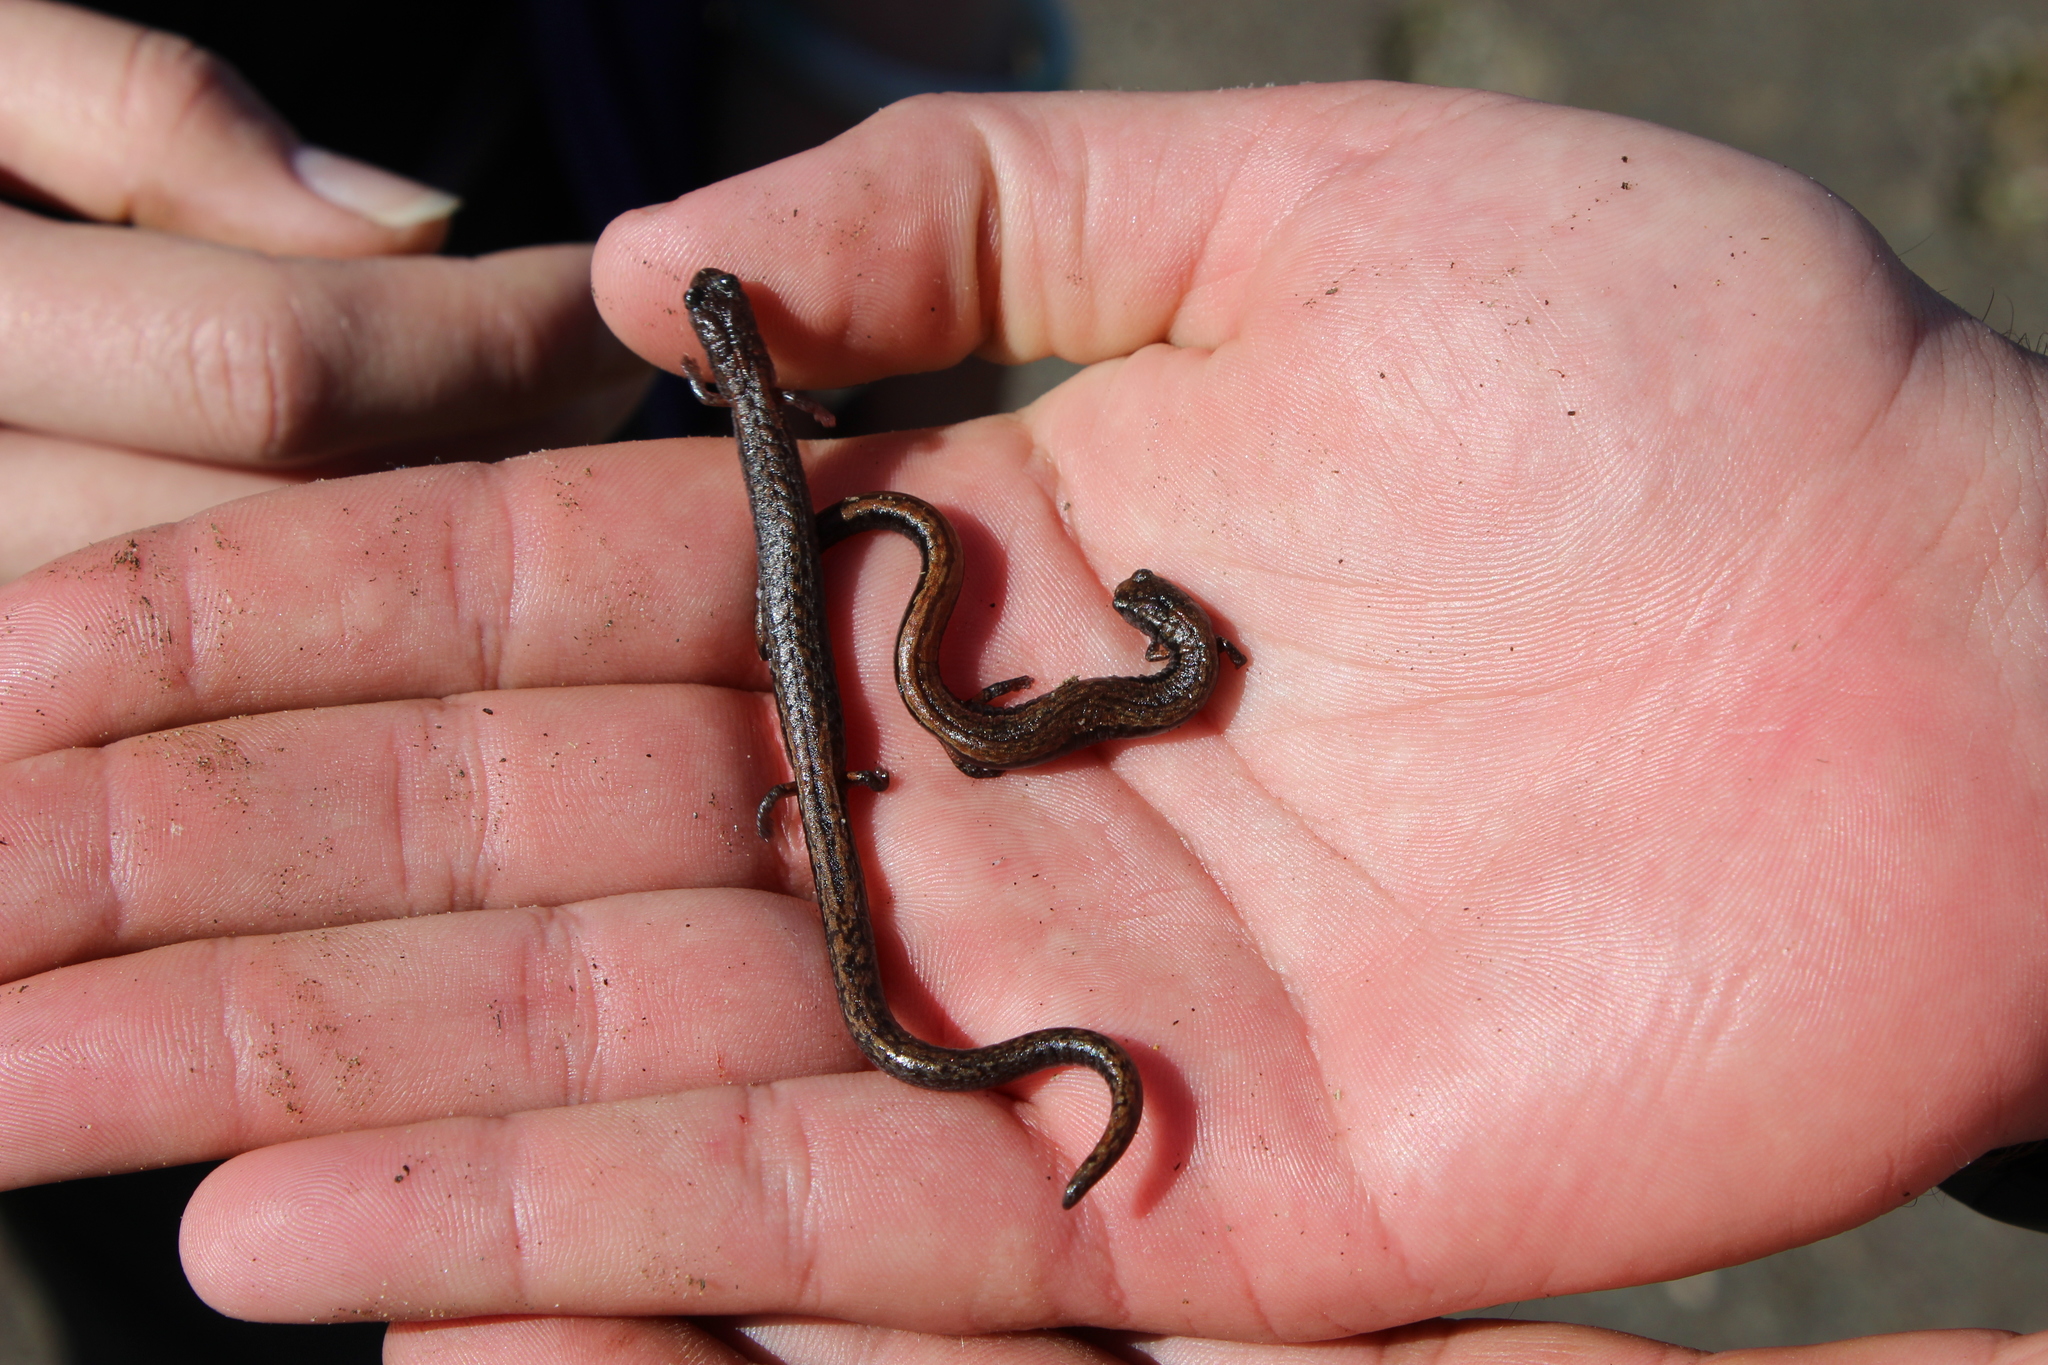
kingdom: Animalia
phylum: Chordata
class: Amphibia
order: Caudata
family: Plethodontidae
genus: Batrachoseps
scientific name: Batrachoseps attenuatus
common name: California slender salamander
